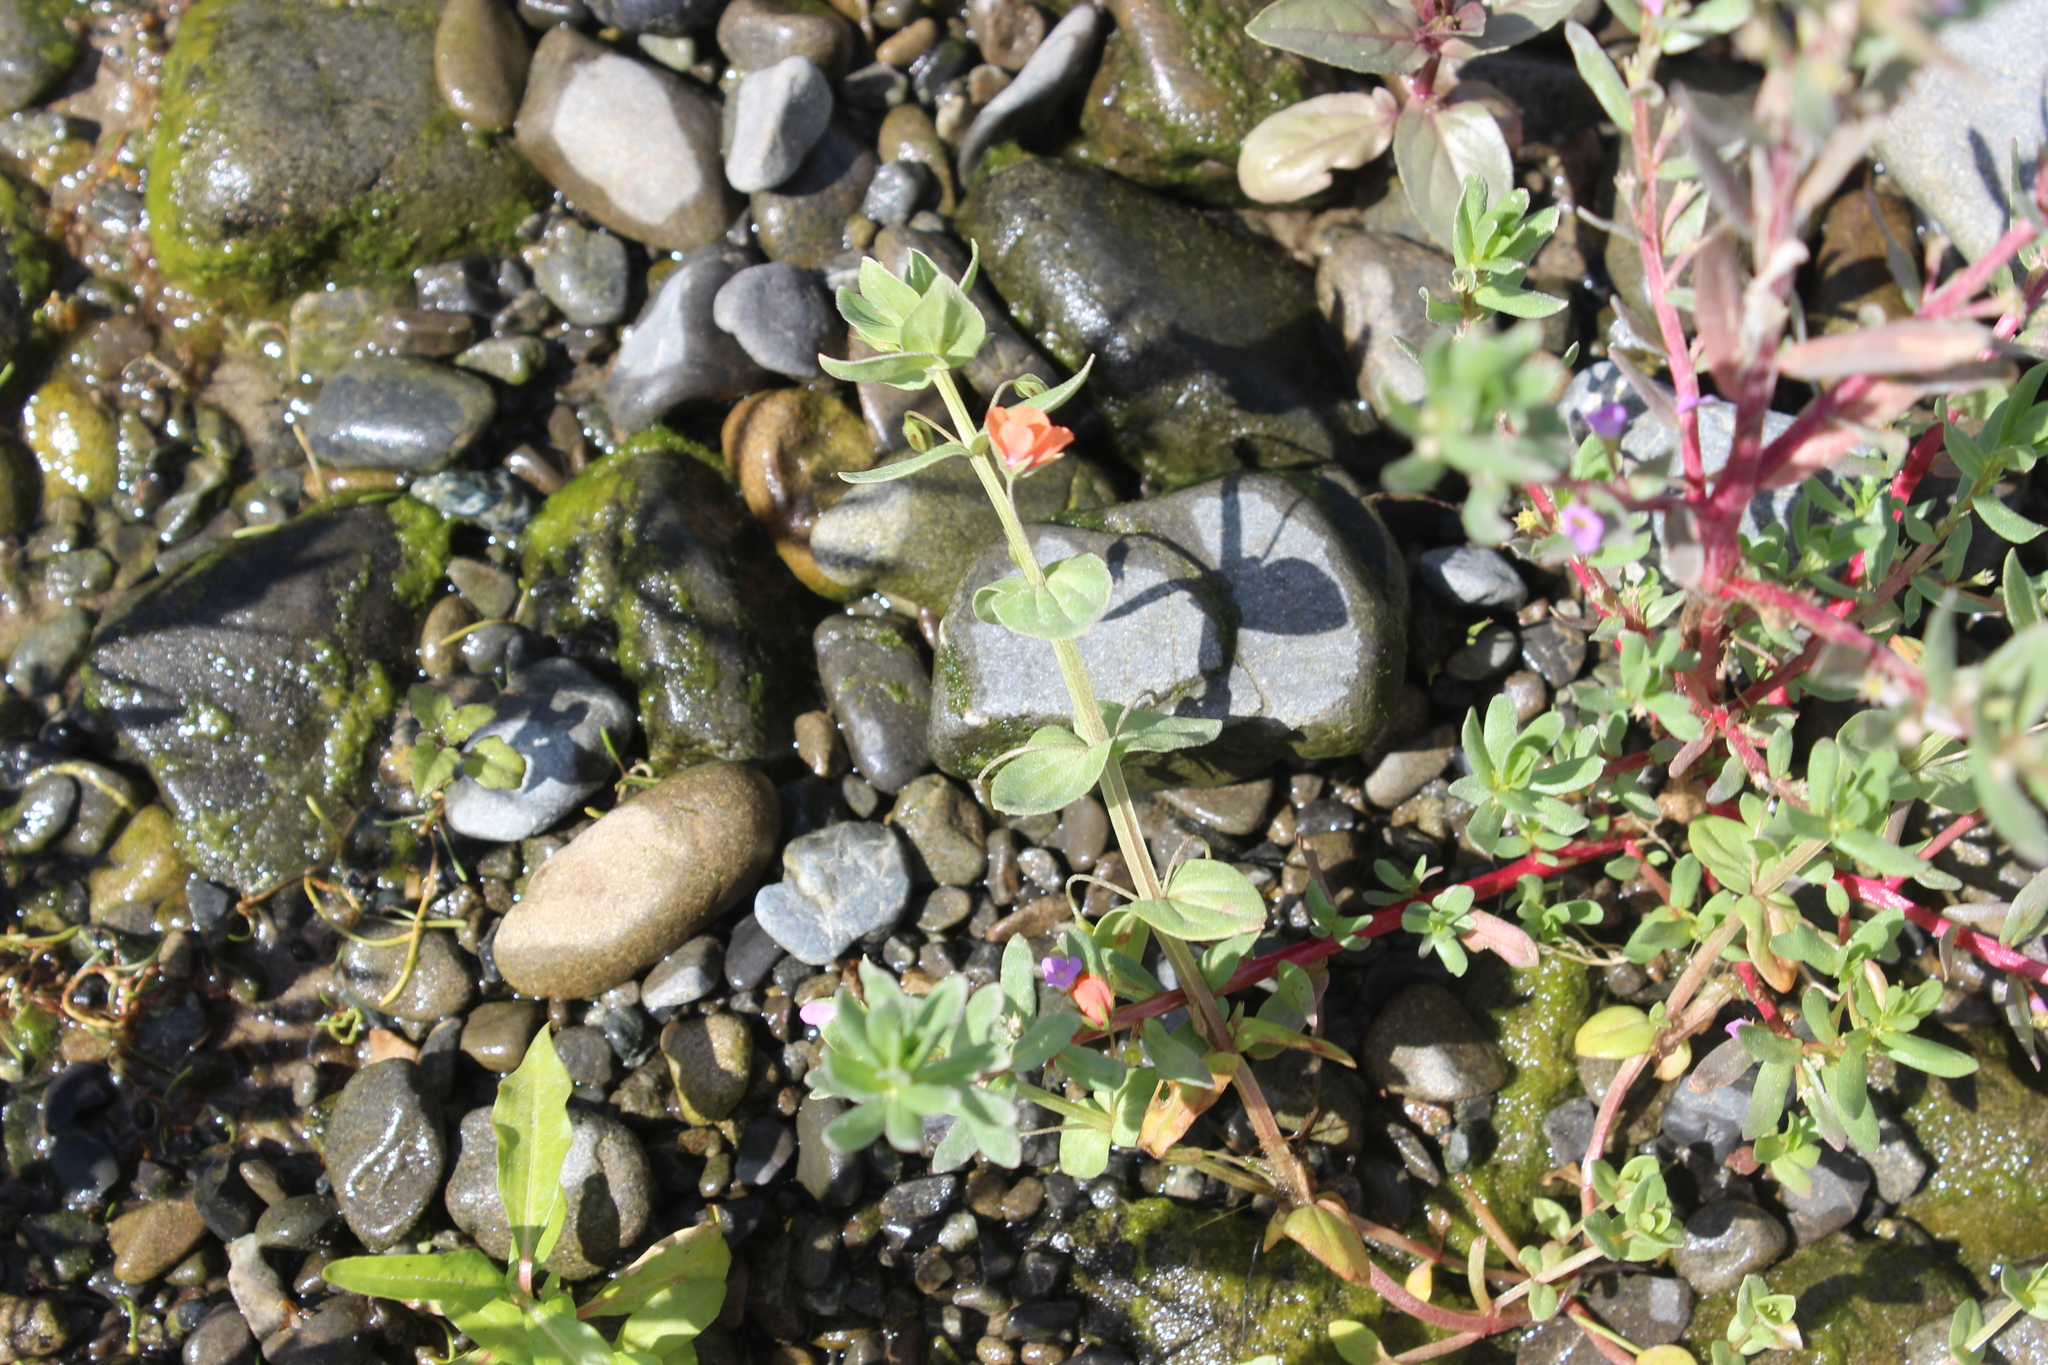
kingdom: Plantae
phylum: Tracheophyta
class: Magnoliopsida
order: Ericales
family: Primulaceae
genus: Lysimachia
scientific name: Lysimachia arvensis
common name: Scarlet pimpernel
